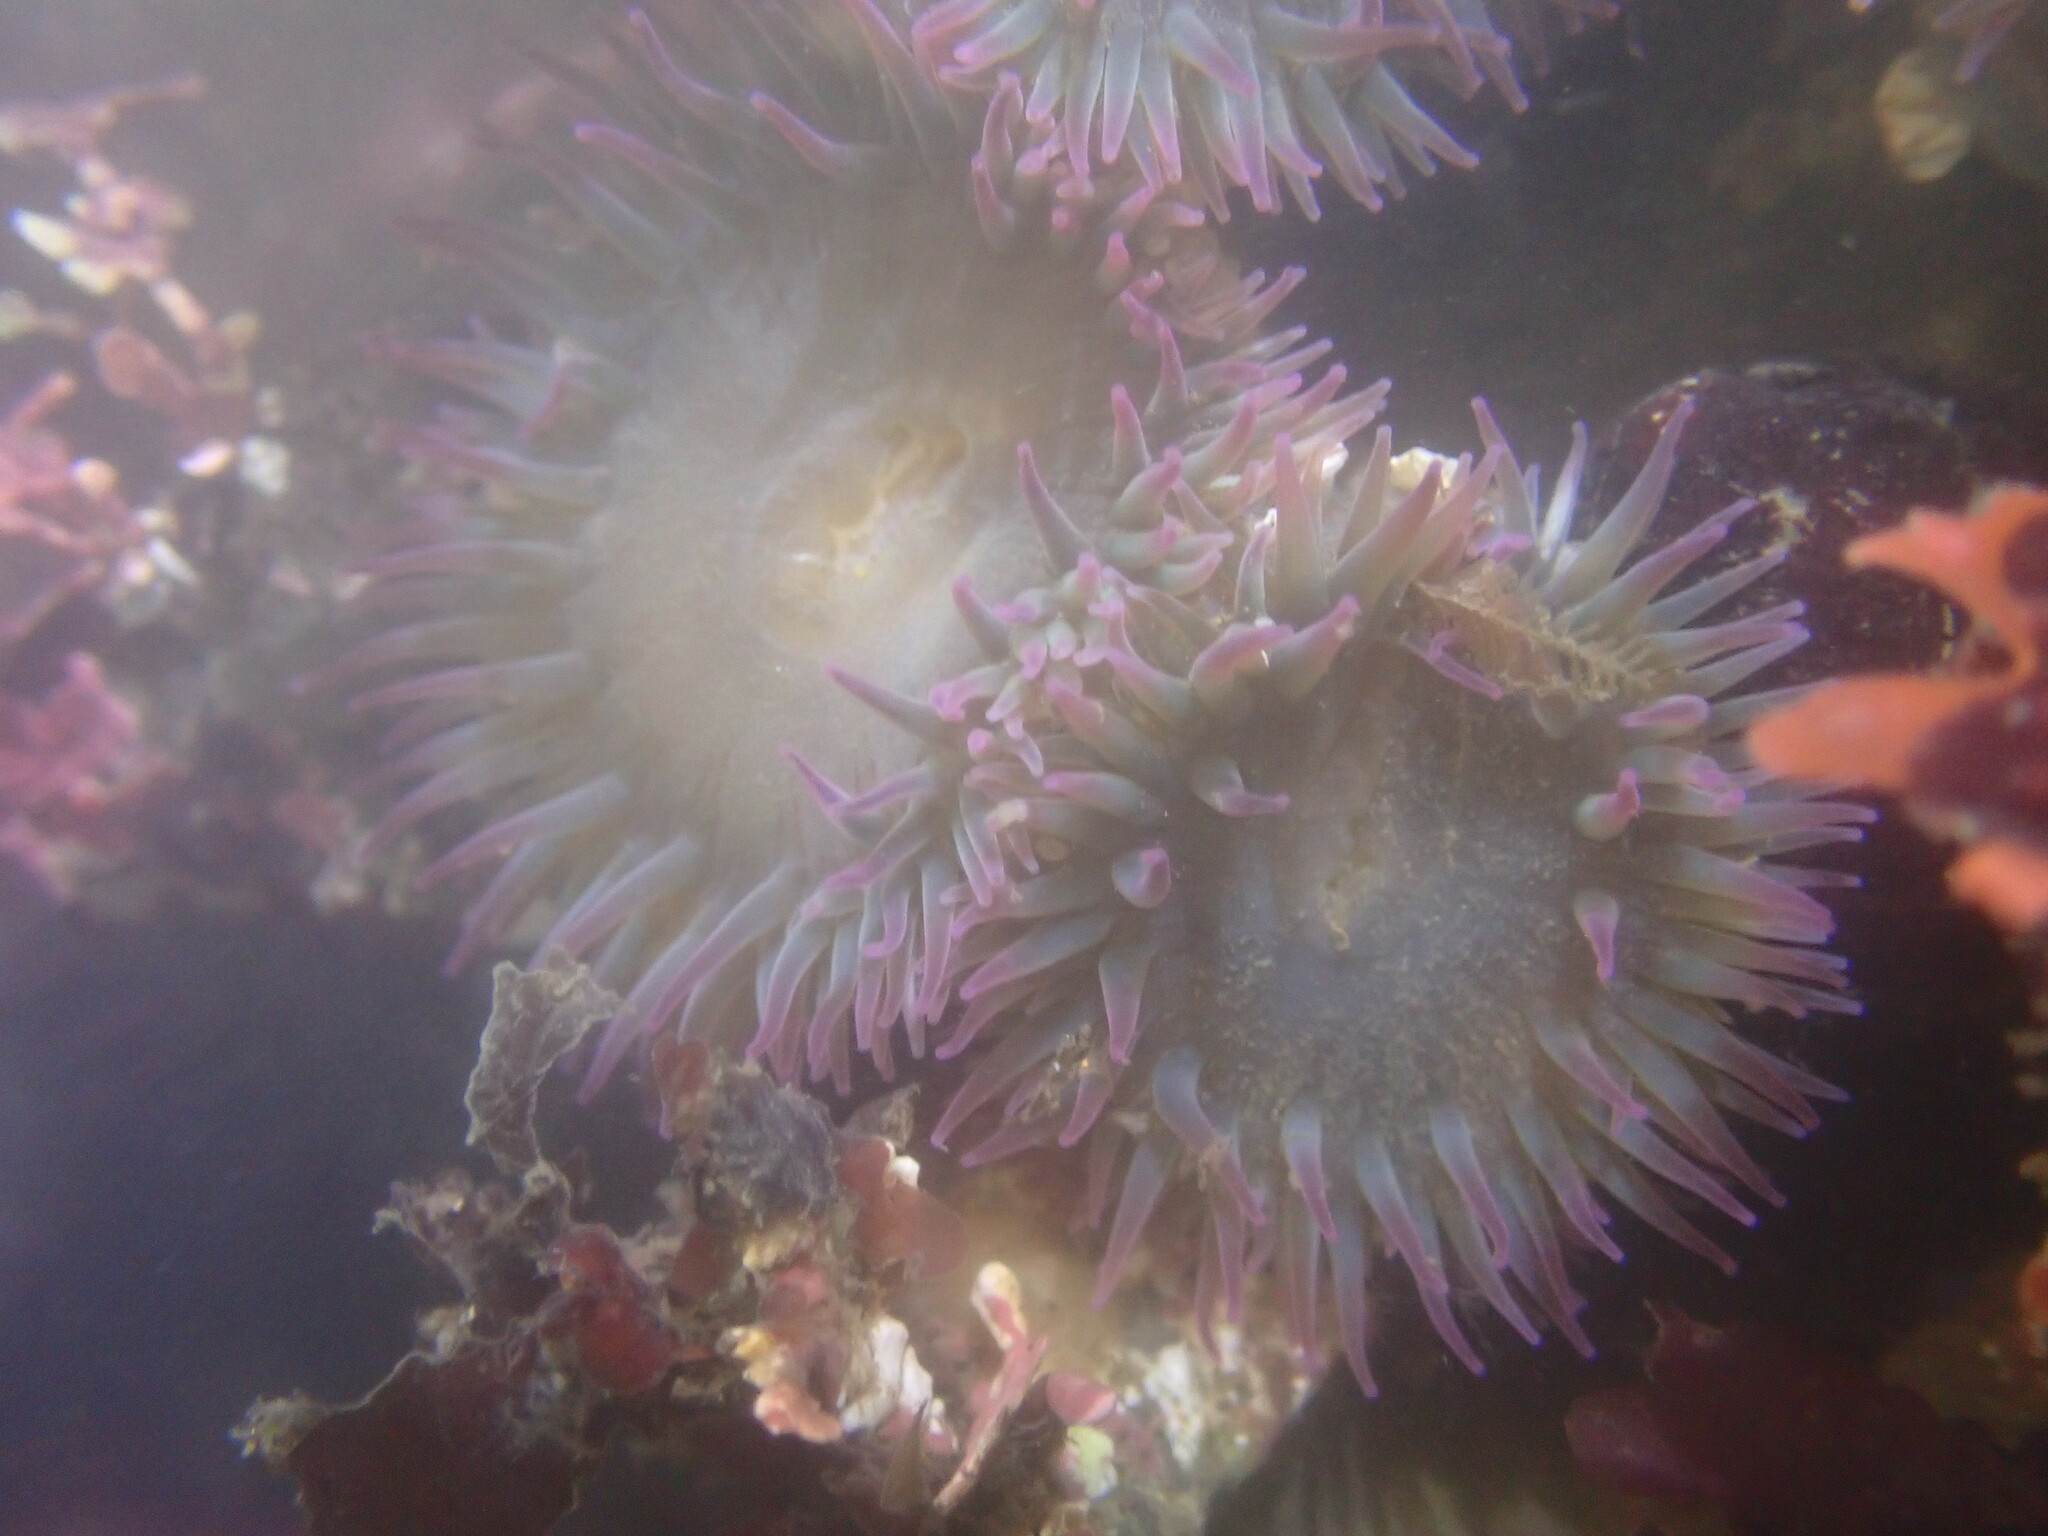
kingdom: Animalia
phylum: Cnidaria
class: Anthozoa
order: Actiniaria
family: Actiniidae
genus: Anthopleura
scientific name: Anthopleura elegantissima
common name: Clonal anemone
